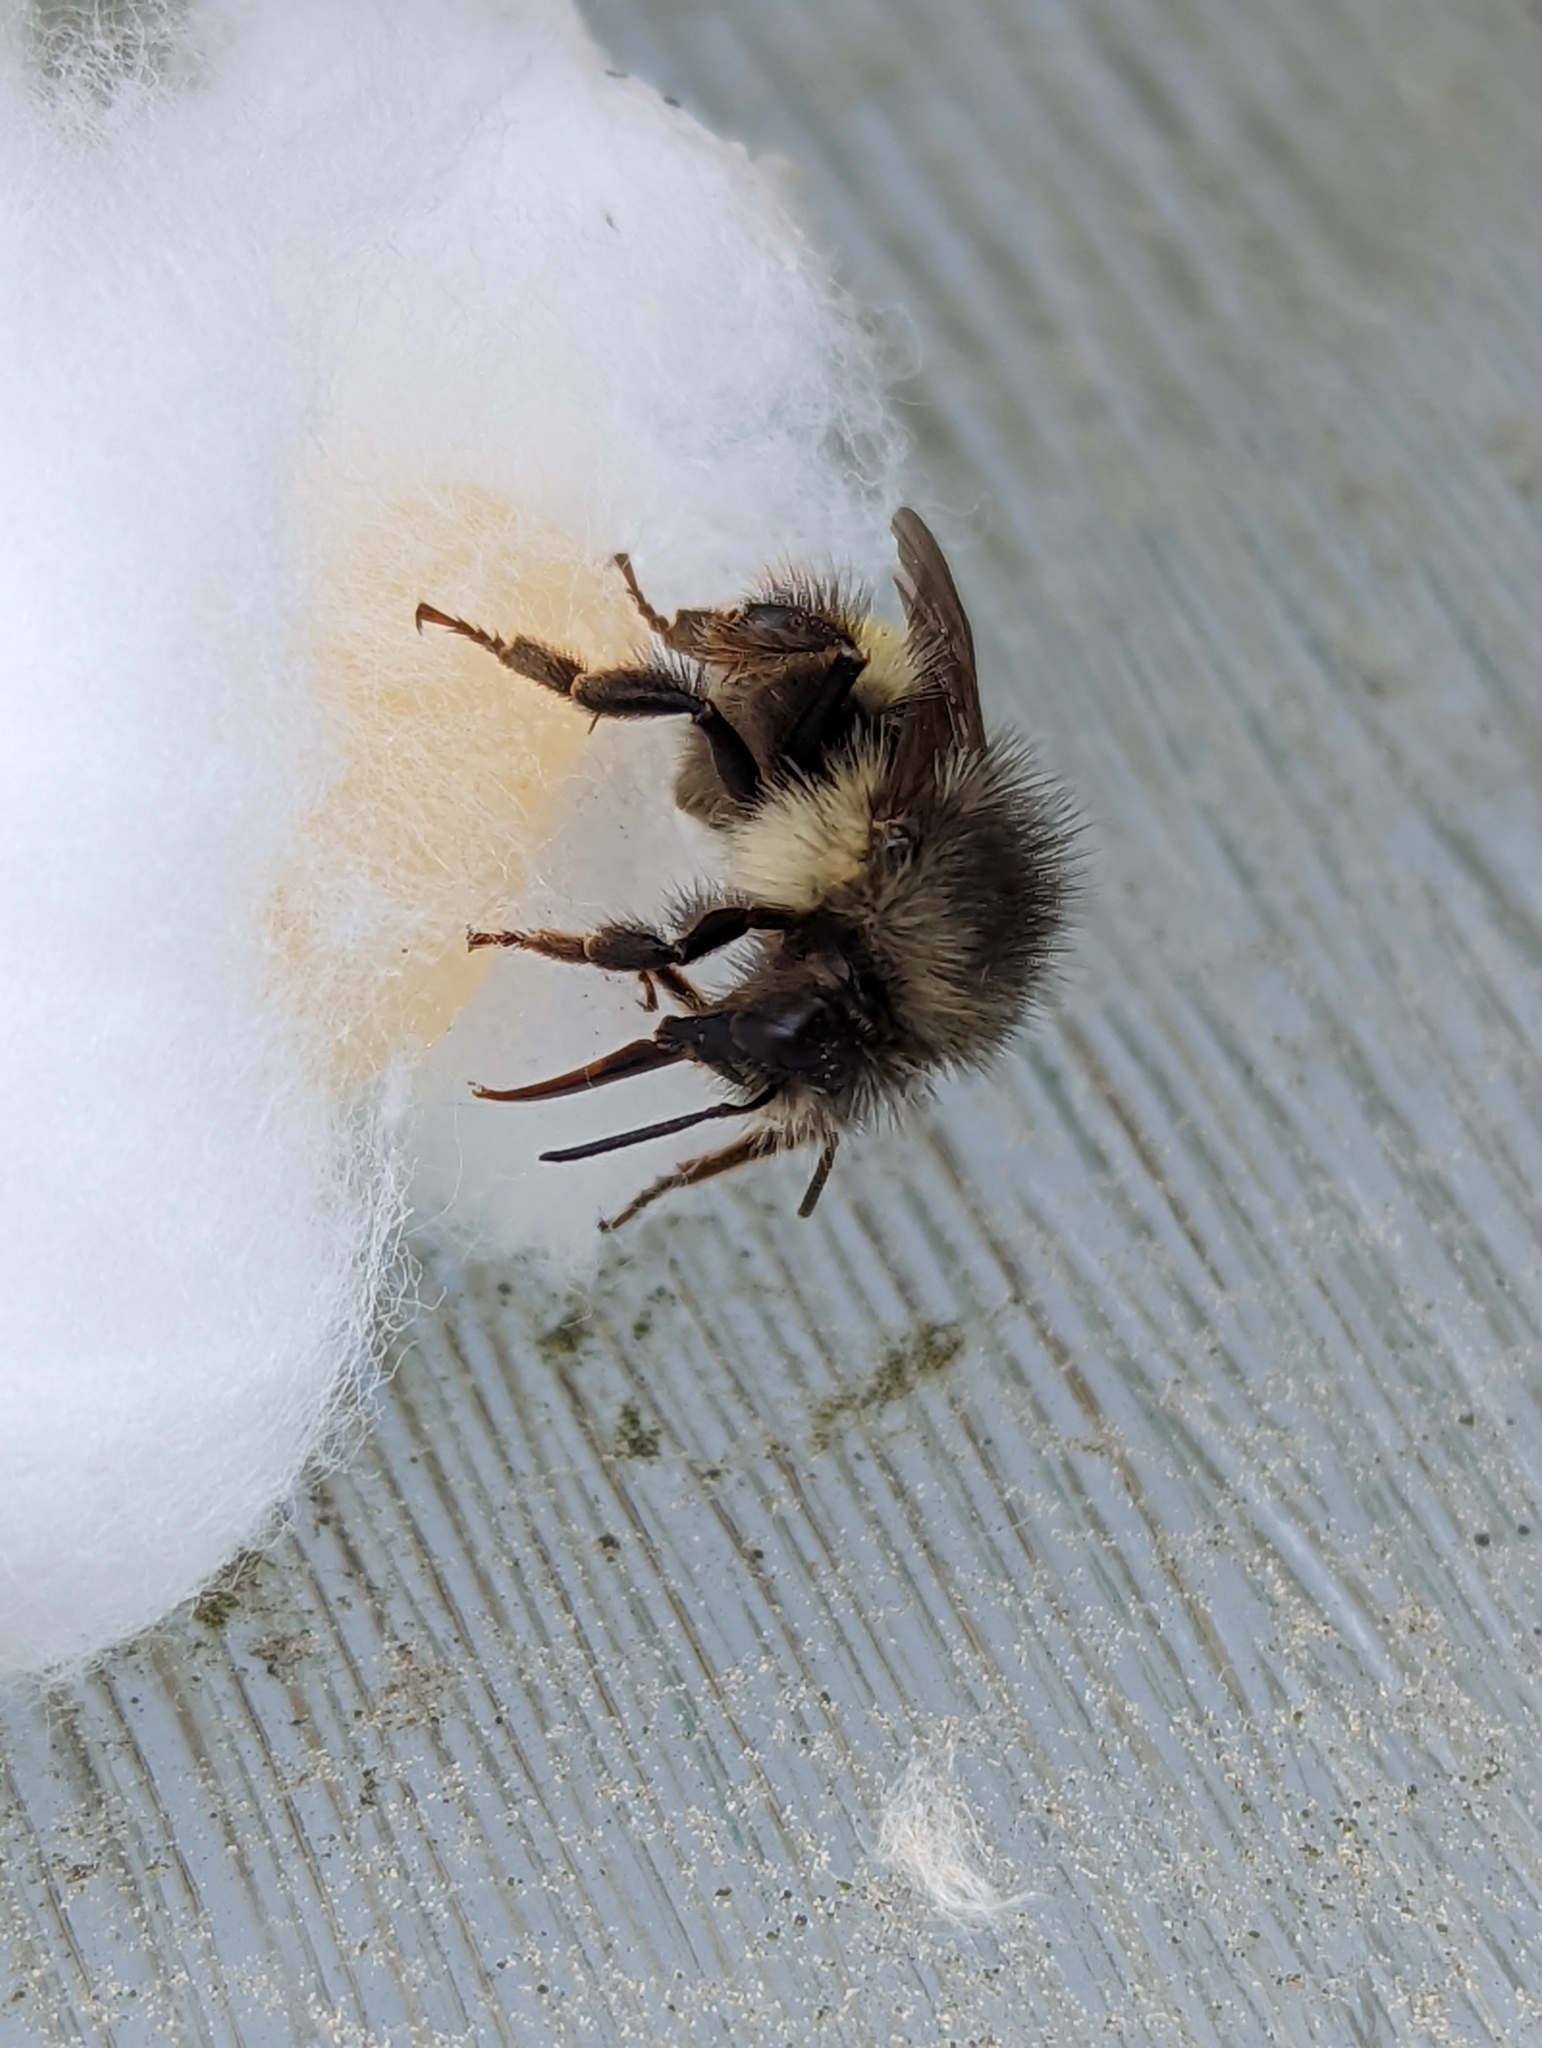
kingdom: Animalia
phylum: Arthropoda
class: Insecta
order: Hymenoptera
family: Apidae
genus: Bombus
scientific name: Bombus flavifrons
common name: Yellow head bumble bee
